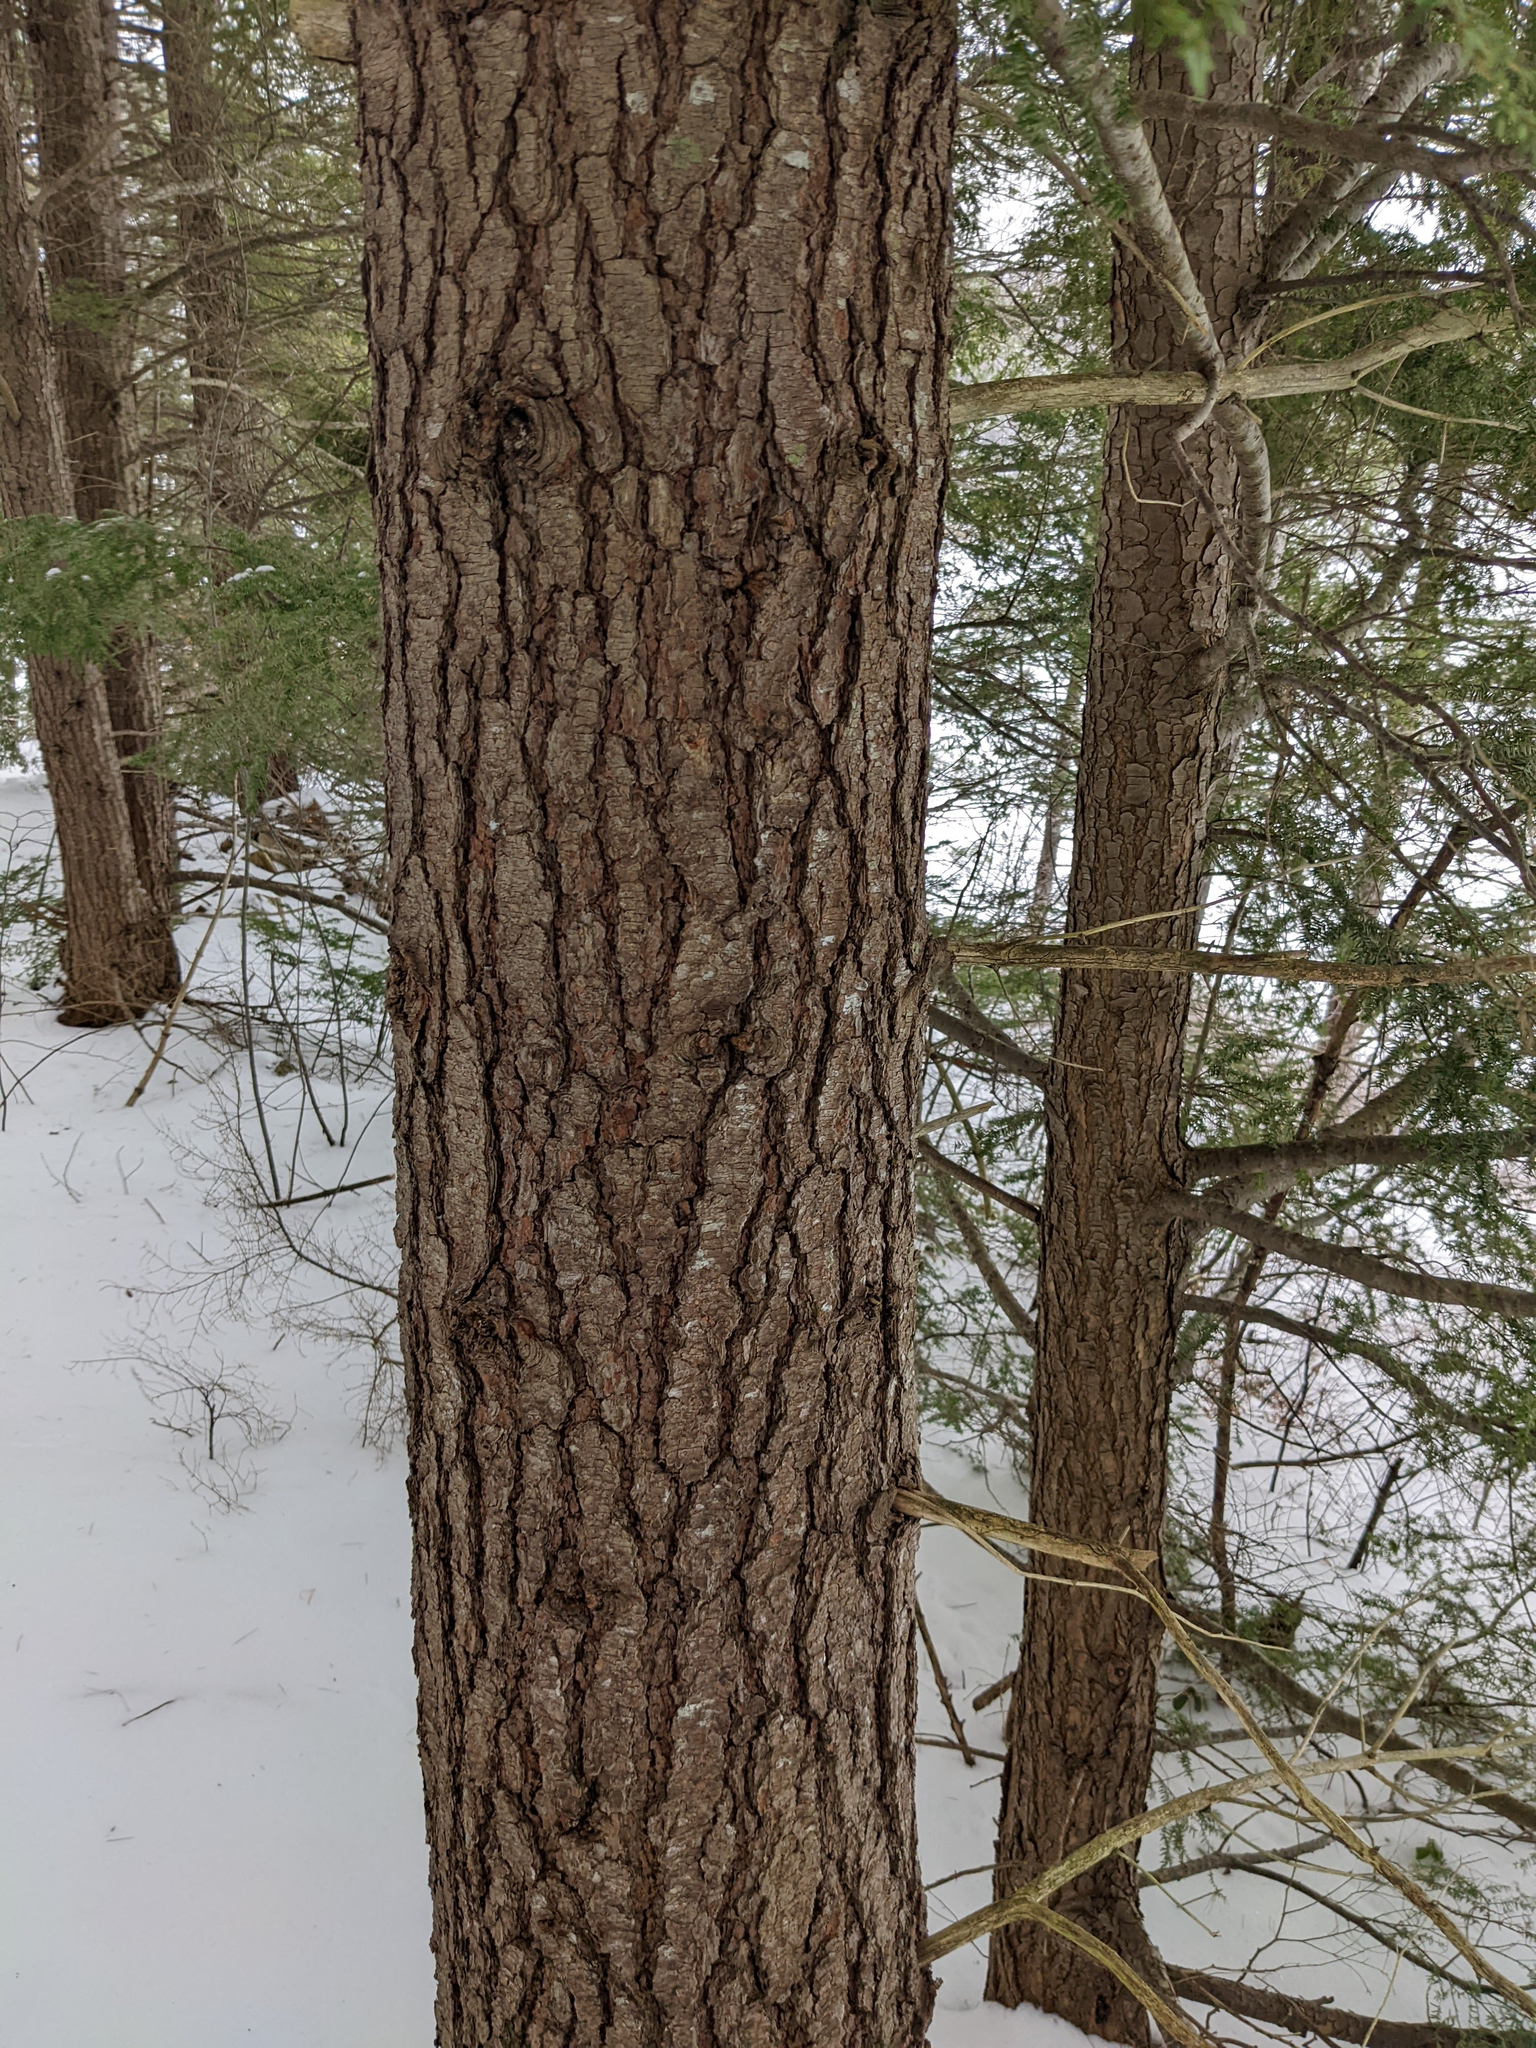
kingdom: Plantae
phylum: Tracheophyta
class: Pinopsida
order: Pinales
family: Pinaceae
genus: Tsuga
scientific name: Tsuga canadensis
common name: Eastern hemlock
